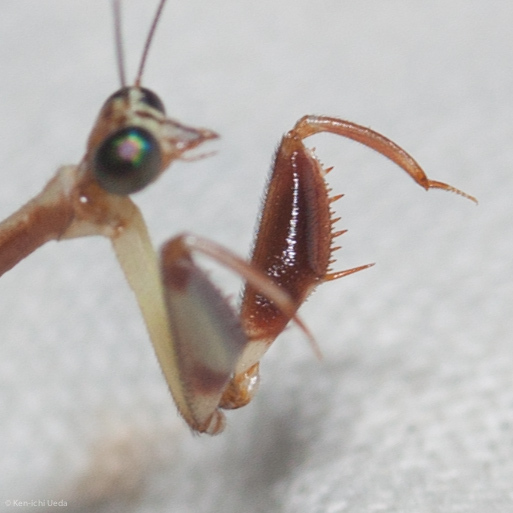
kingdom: Animalia
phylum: Arthropoda
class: Insecta
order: Neuroptera
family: Mantispidae
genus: Leptomantispa
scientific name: Leptomantispa pulchella
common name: Stevens's mantidfly
